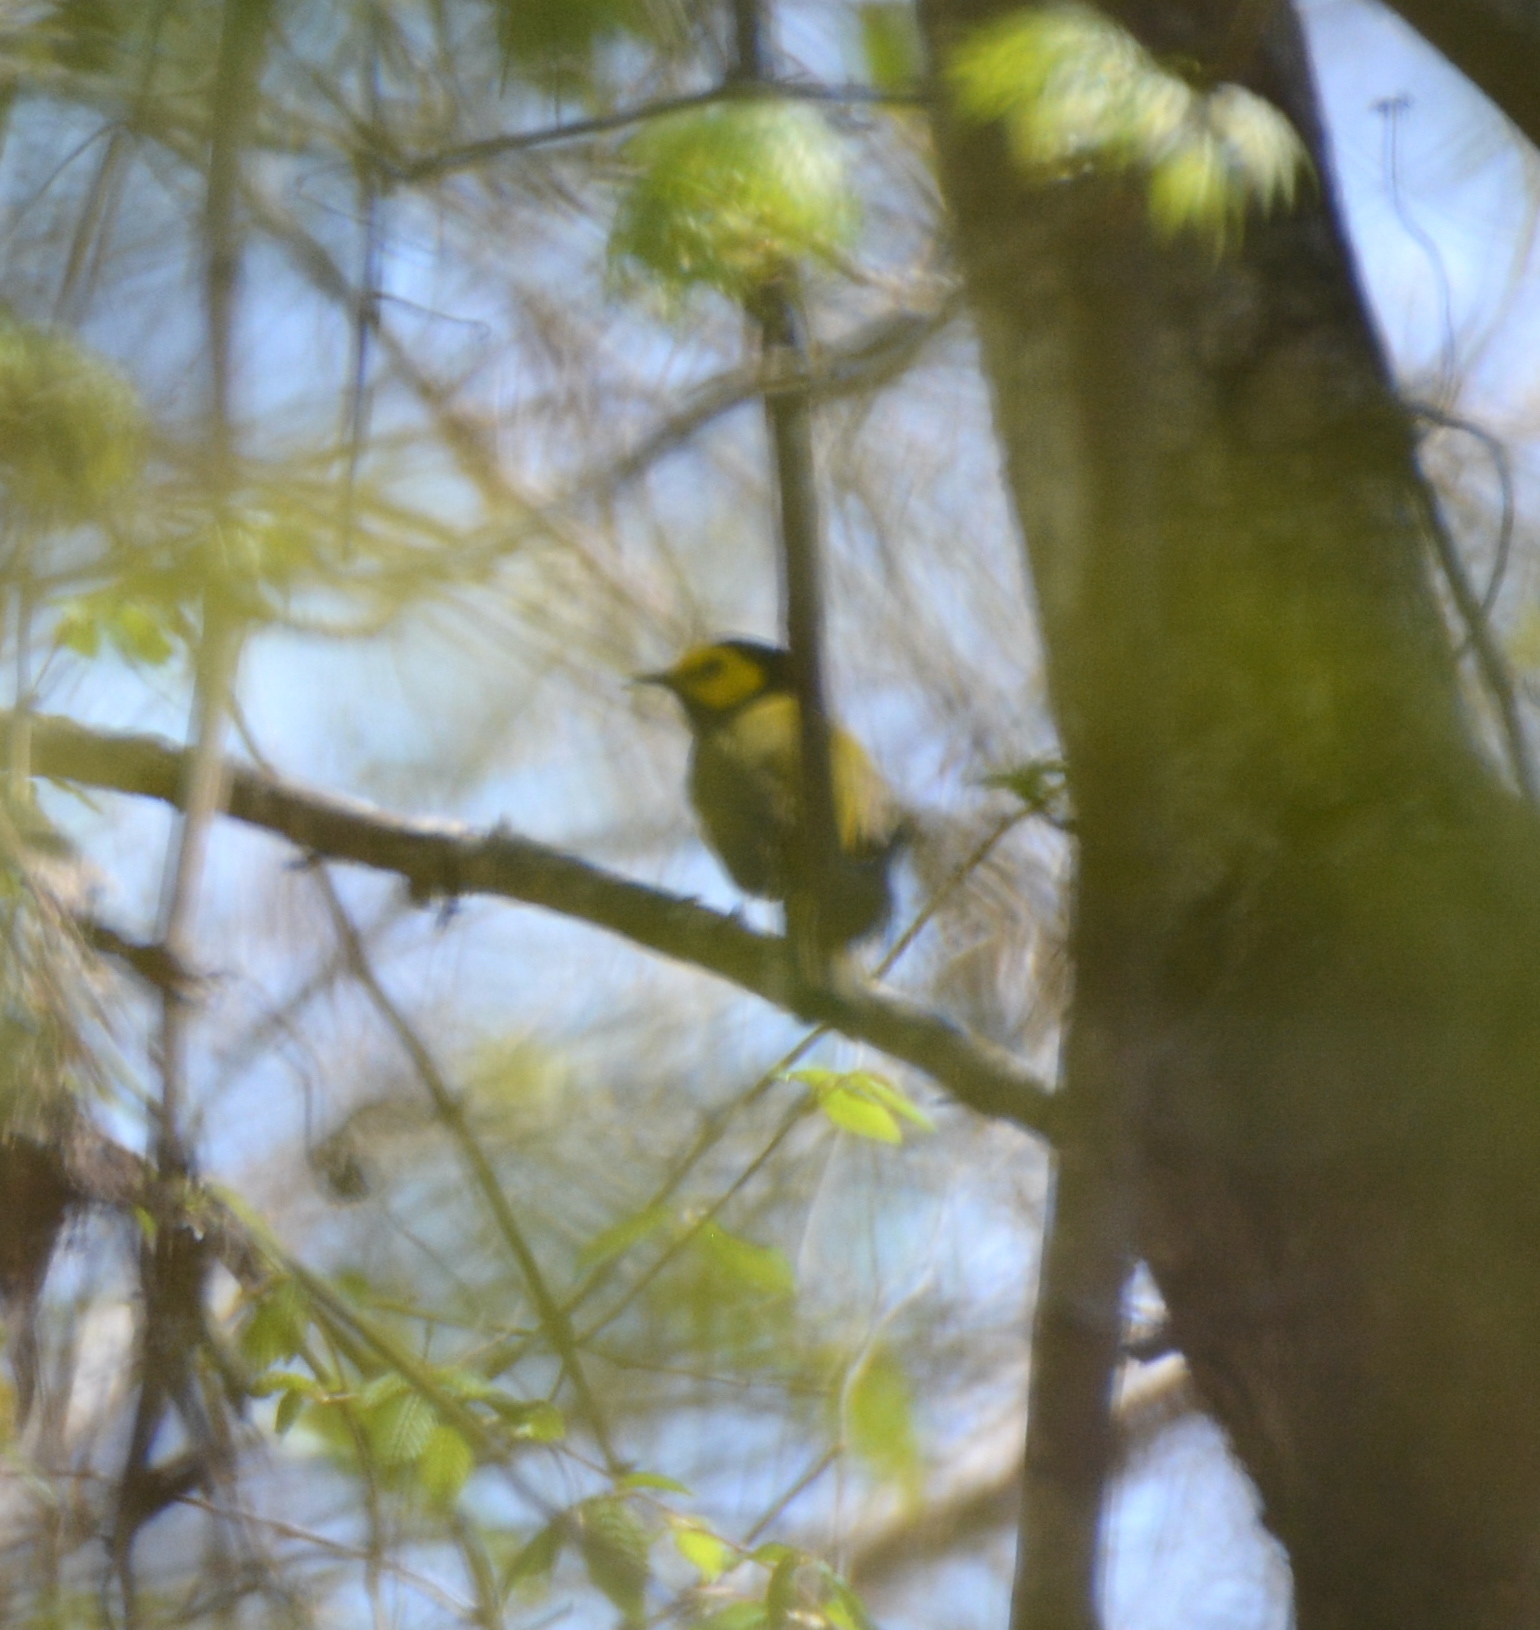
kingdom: Animalia
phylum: Chordata
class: Aves
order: Passeriformes
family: Parulidae
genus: Setophaga
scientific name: Setophaga citrina
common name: Hooded warbler
